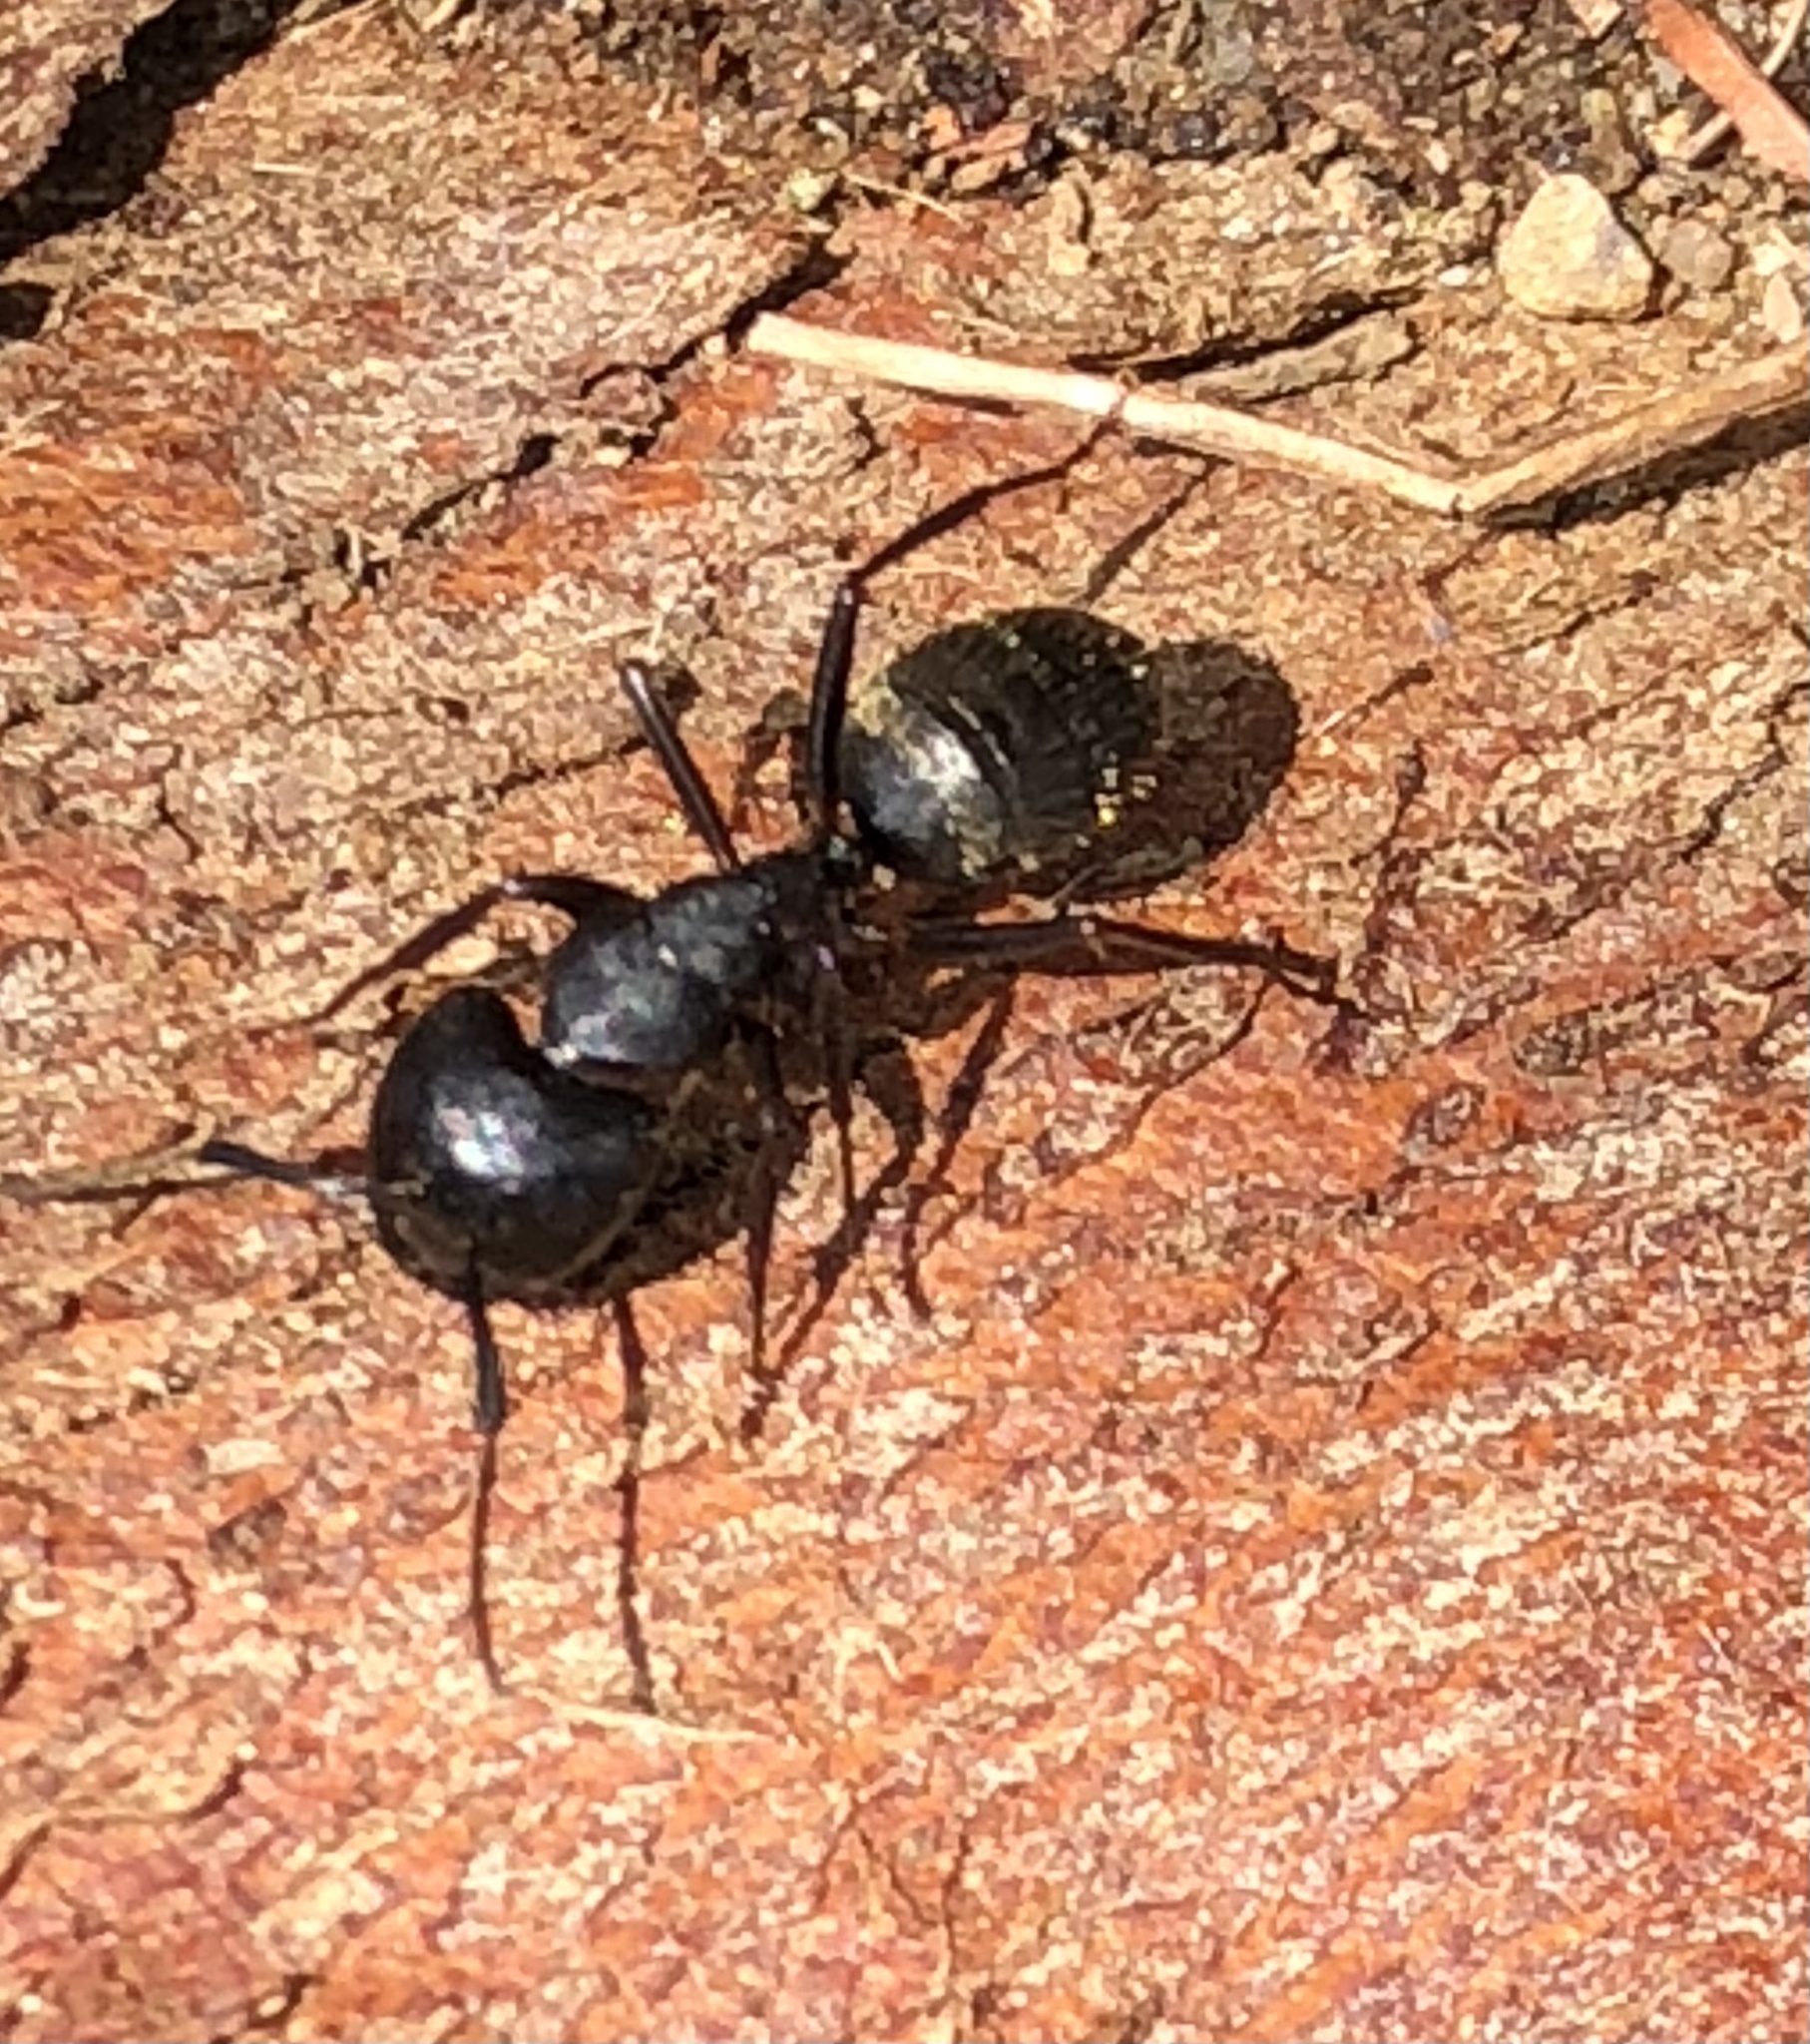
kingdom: Animalia
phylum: Arthropoda
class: Insecta
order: Hymenoptera
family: Formicidae
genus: Camponotus
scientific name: Camponotus pennsylvanicus
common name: Black carpenter ant
